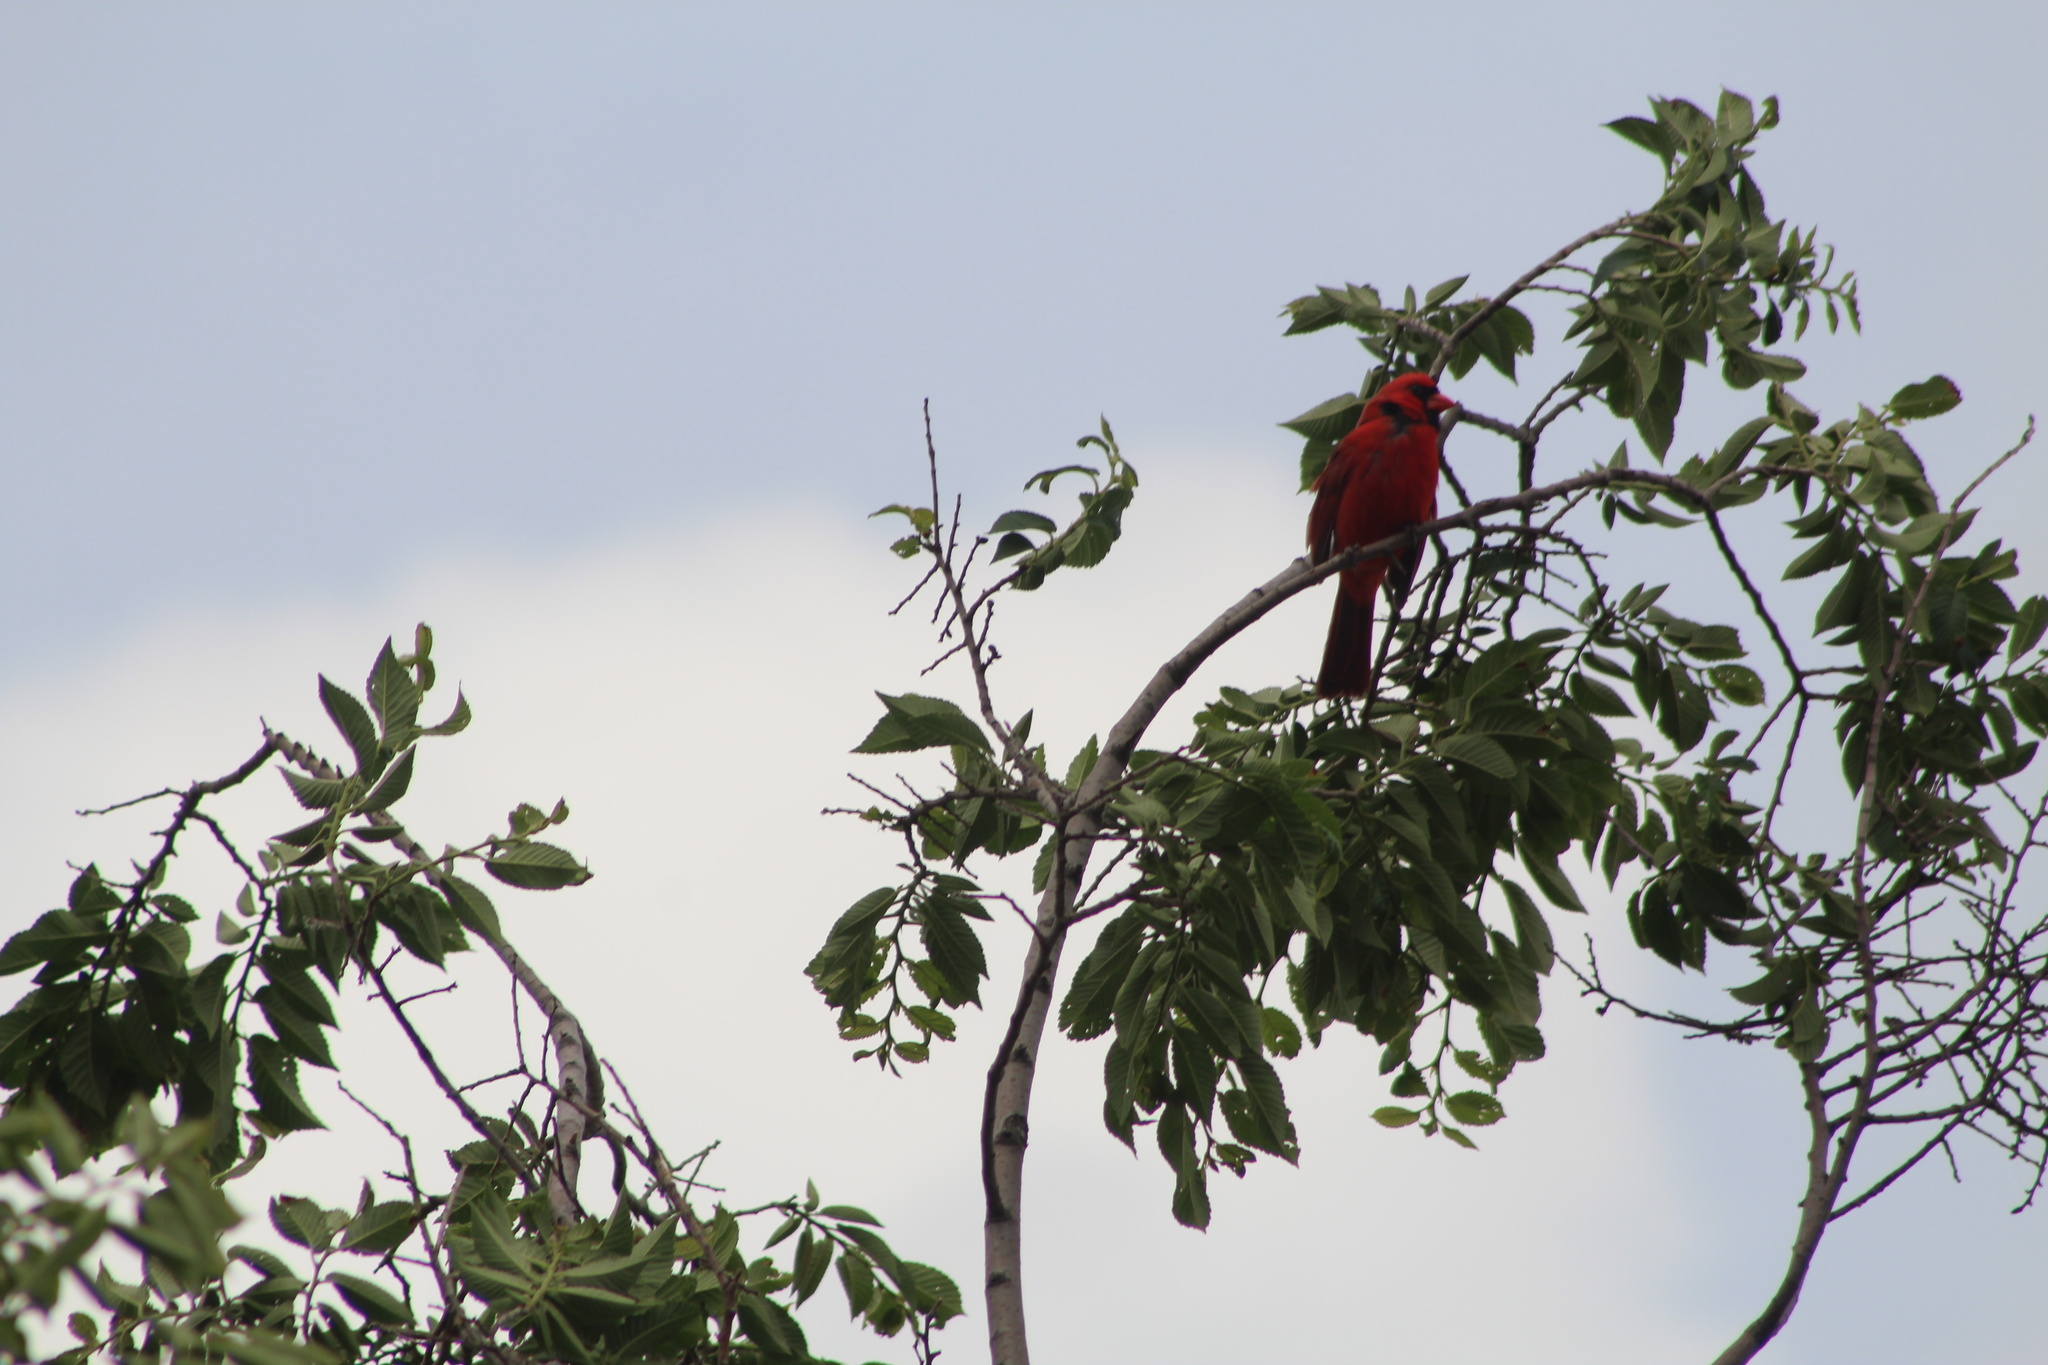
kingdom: Animalia
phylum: Chordata
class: Aves
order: Passeriformes
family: Cardinalidae
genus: Cardinalis
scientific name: Cardinalis cardinalis
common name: Northern cardinal
